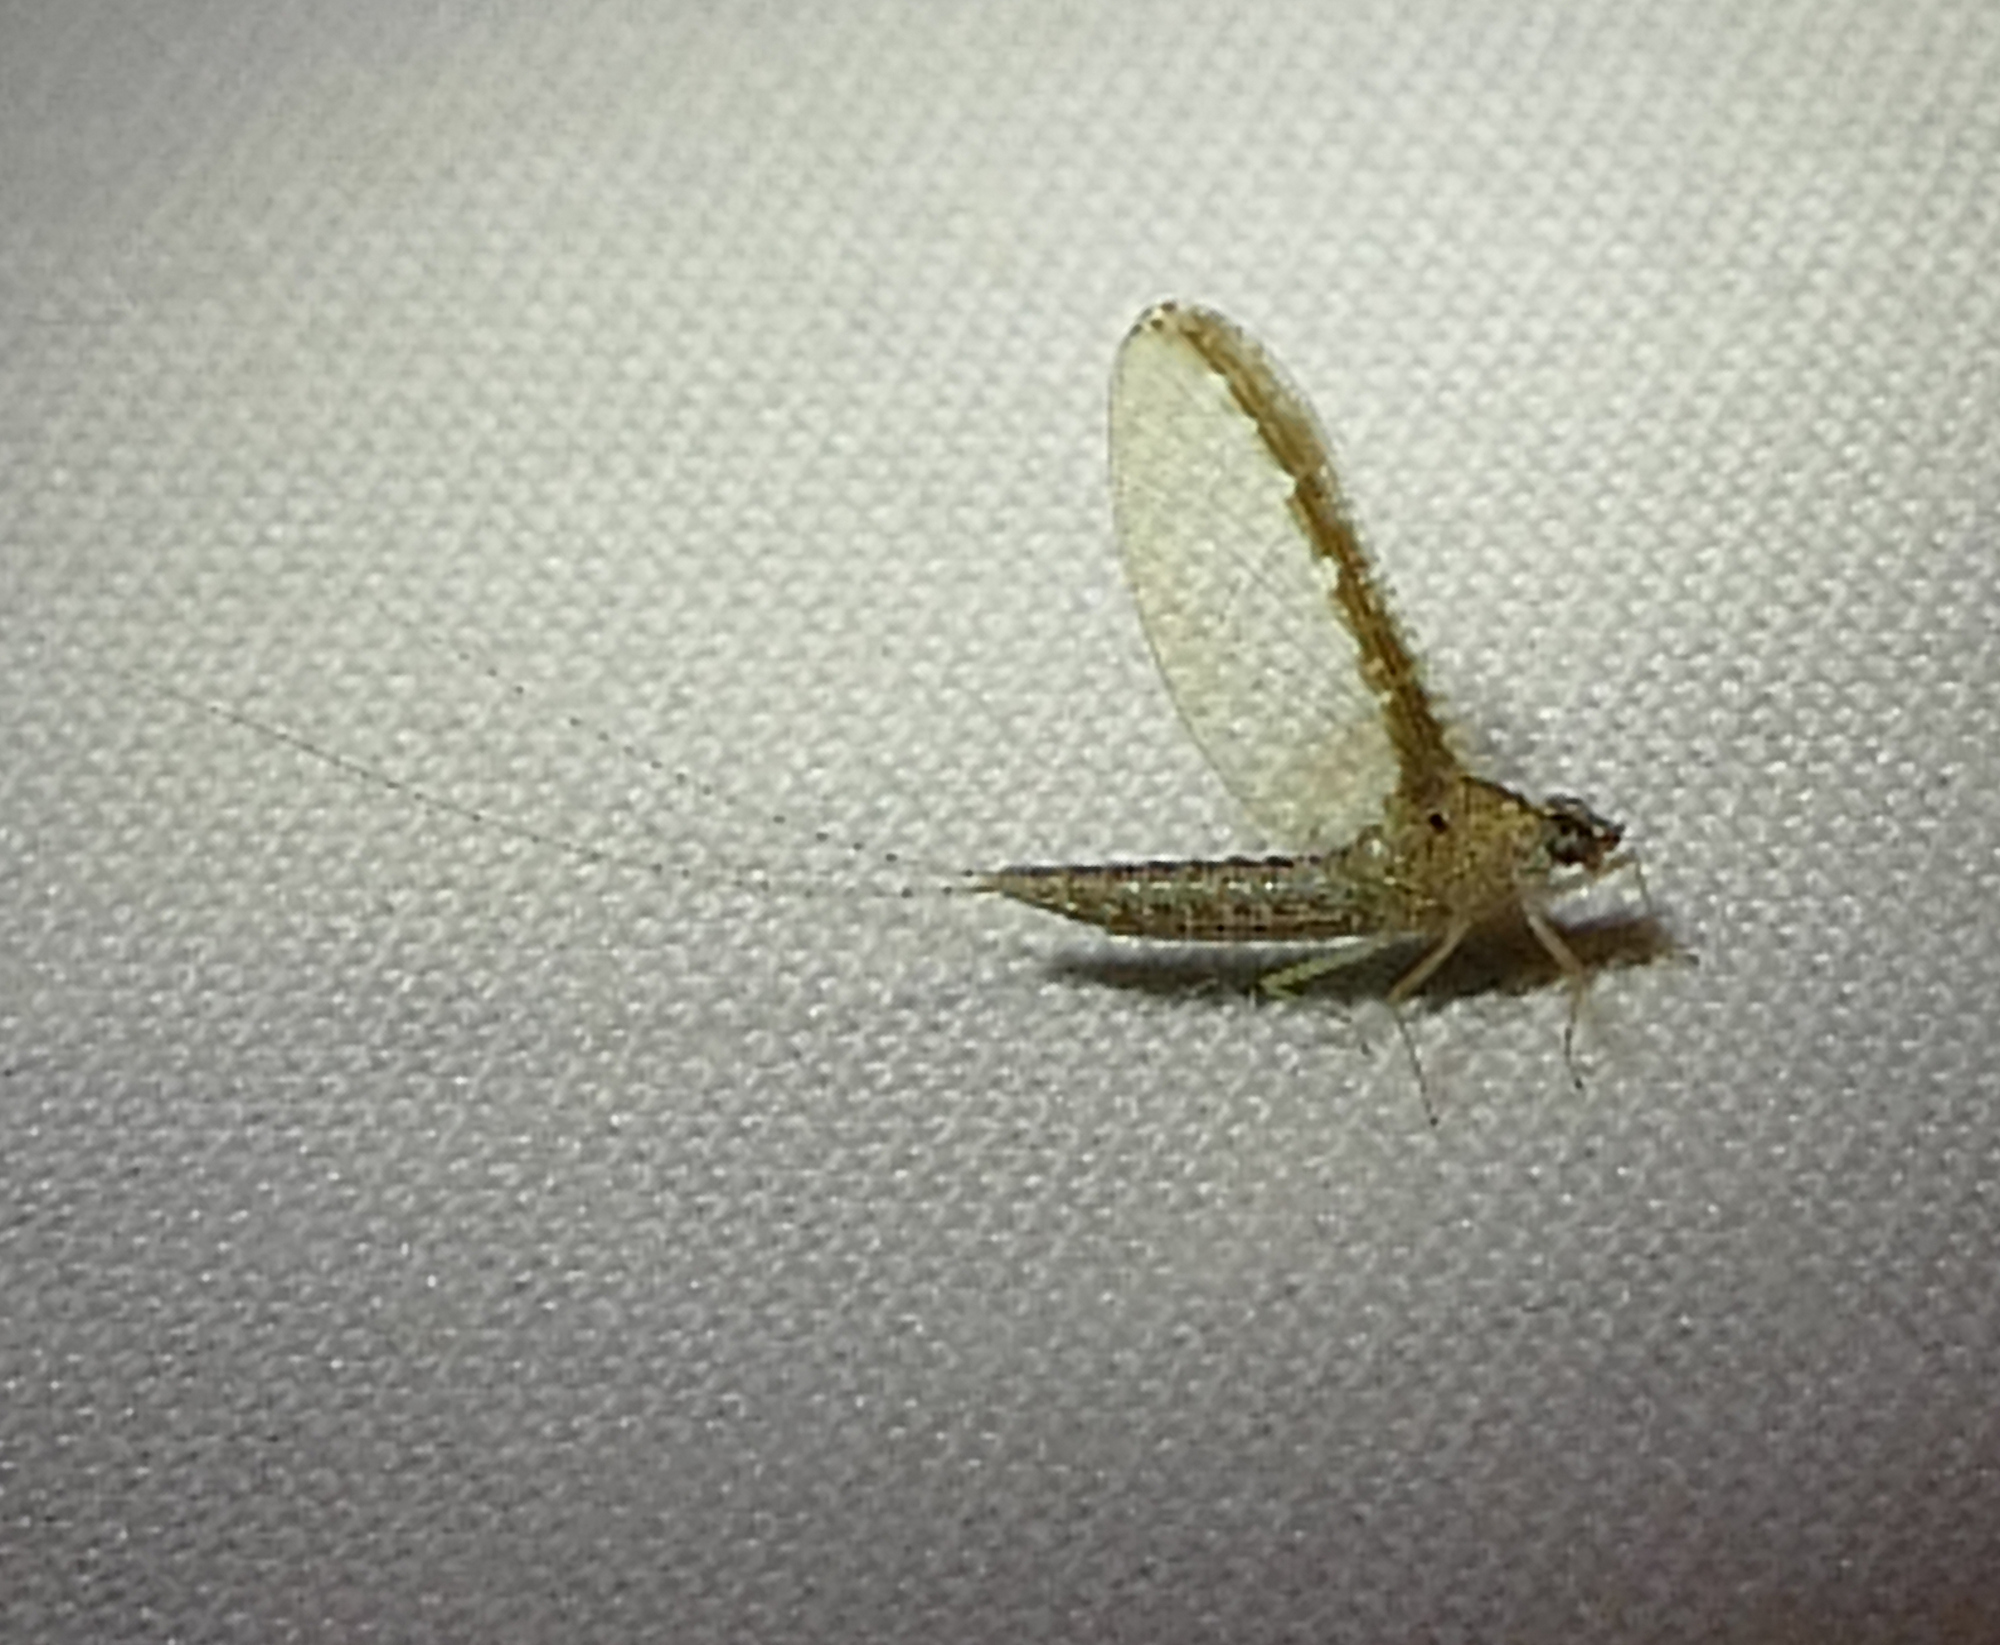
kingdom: Animalia
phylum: Arthropoda
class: Insecta
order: Ephemeroptera
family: Baetidae
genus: Callibaetis
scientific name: Callibaetis californicus
